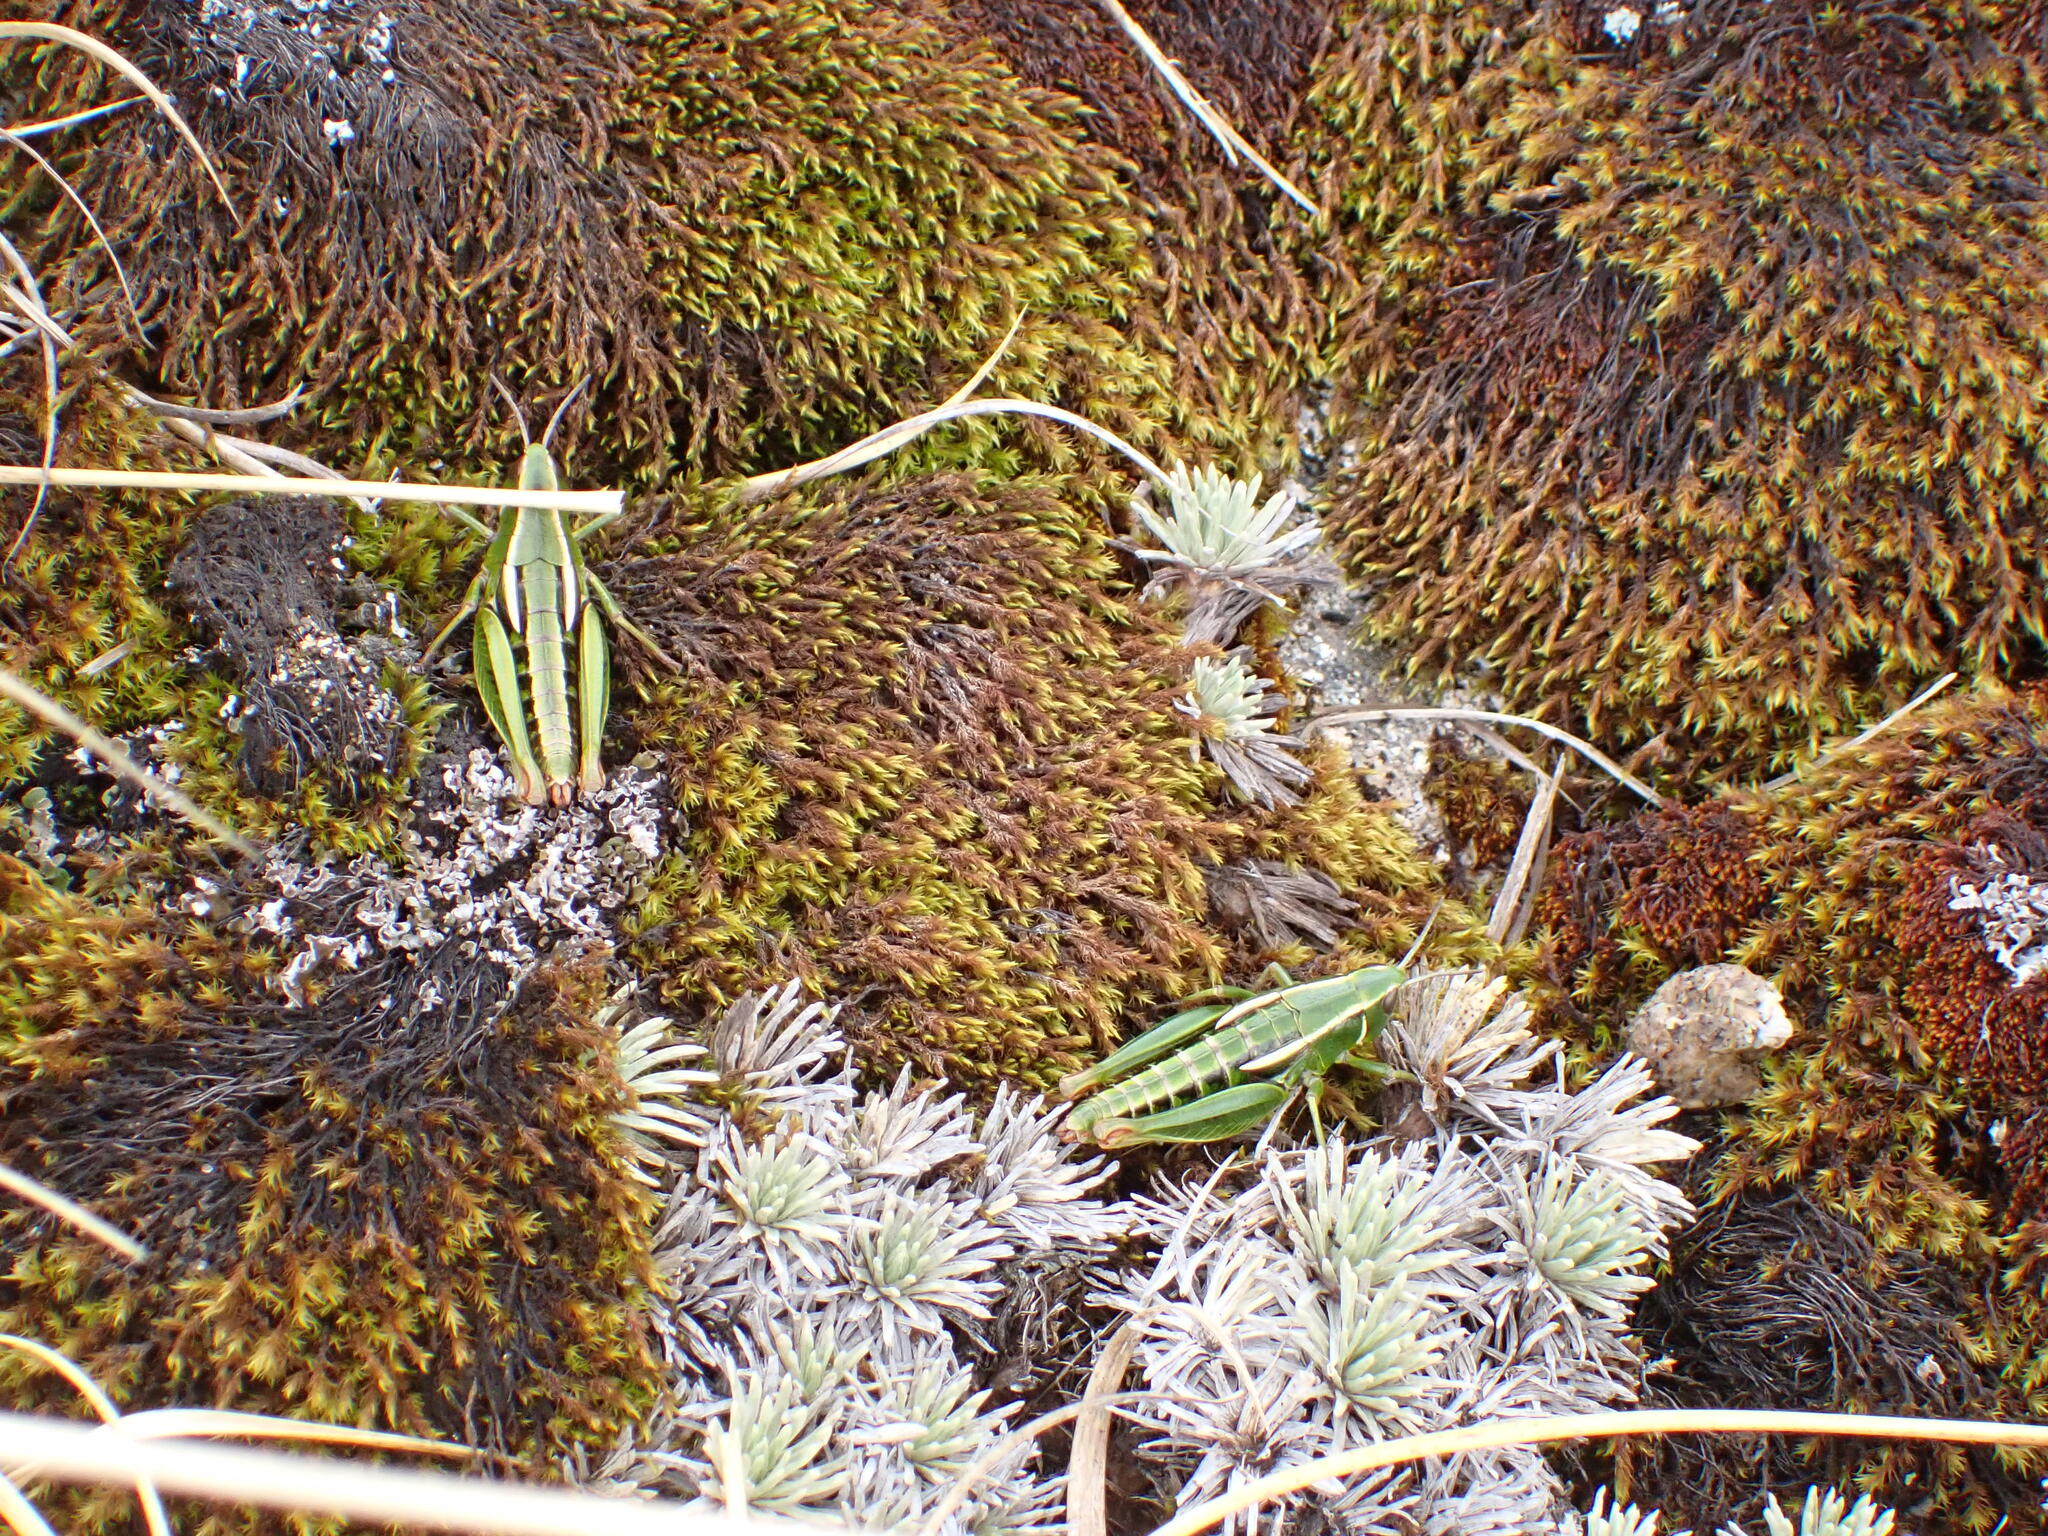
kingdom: Animalia
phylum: Arthropoda
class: Insecta
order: Orthoptera
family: Acrididae
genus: Sigaus
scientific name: Sigaus
